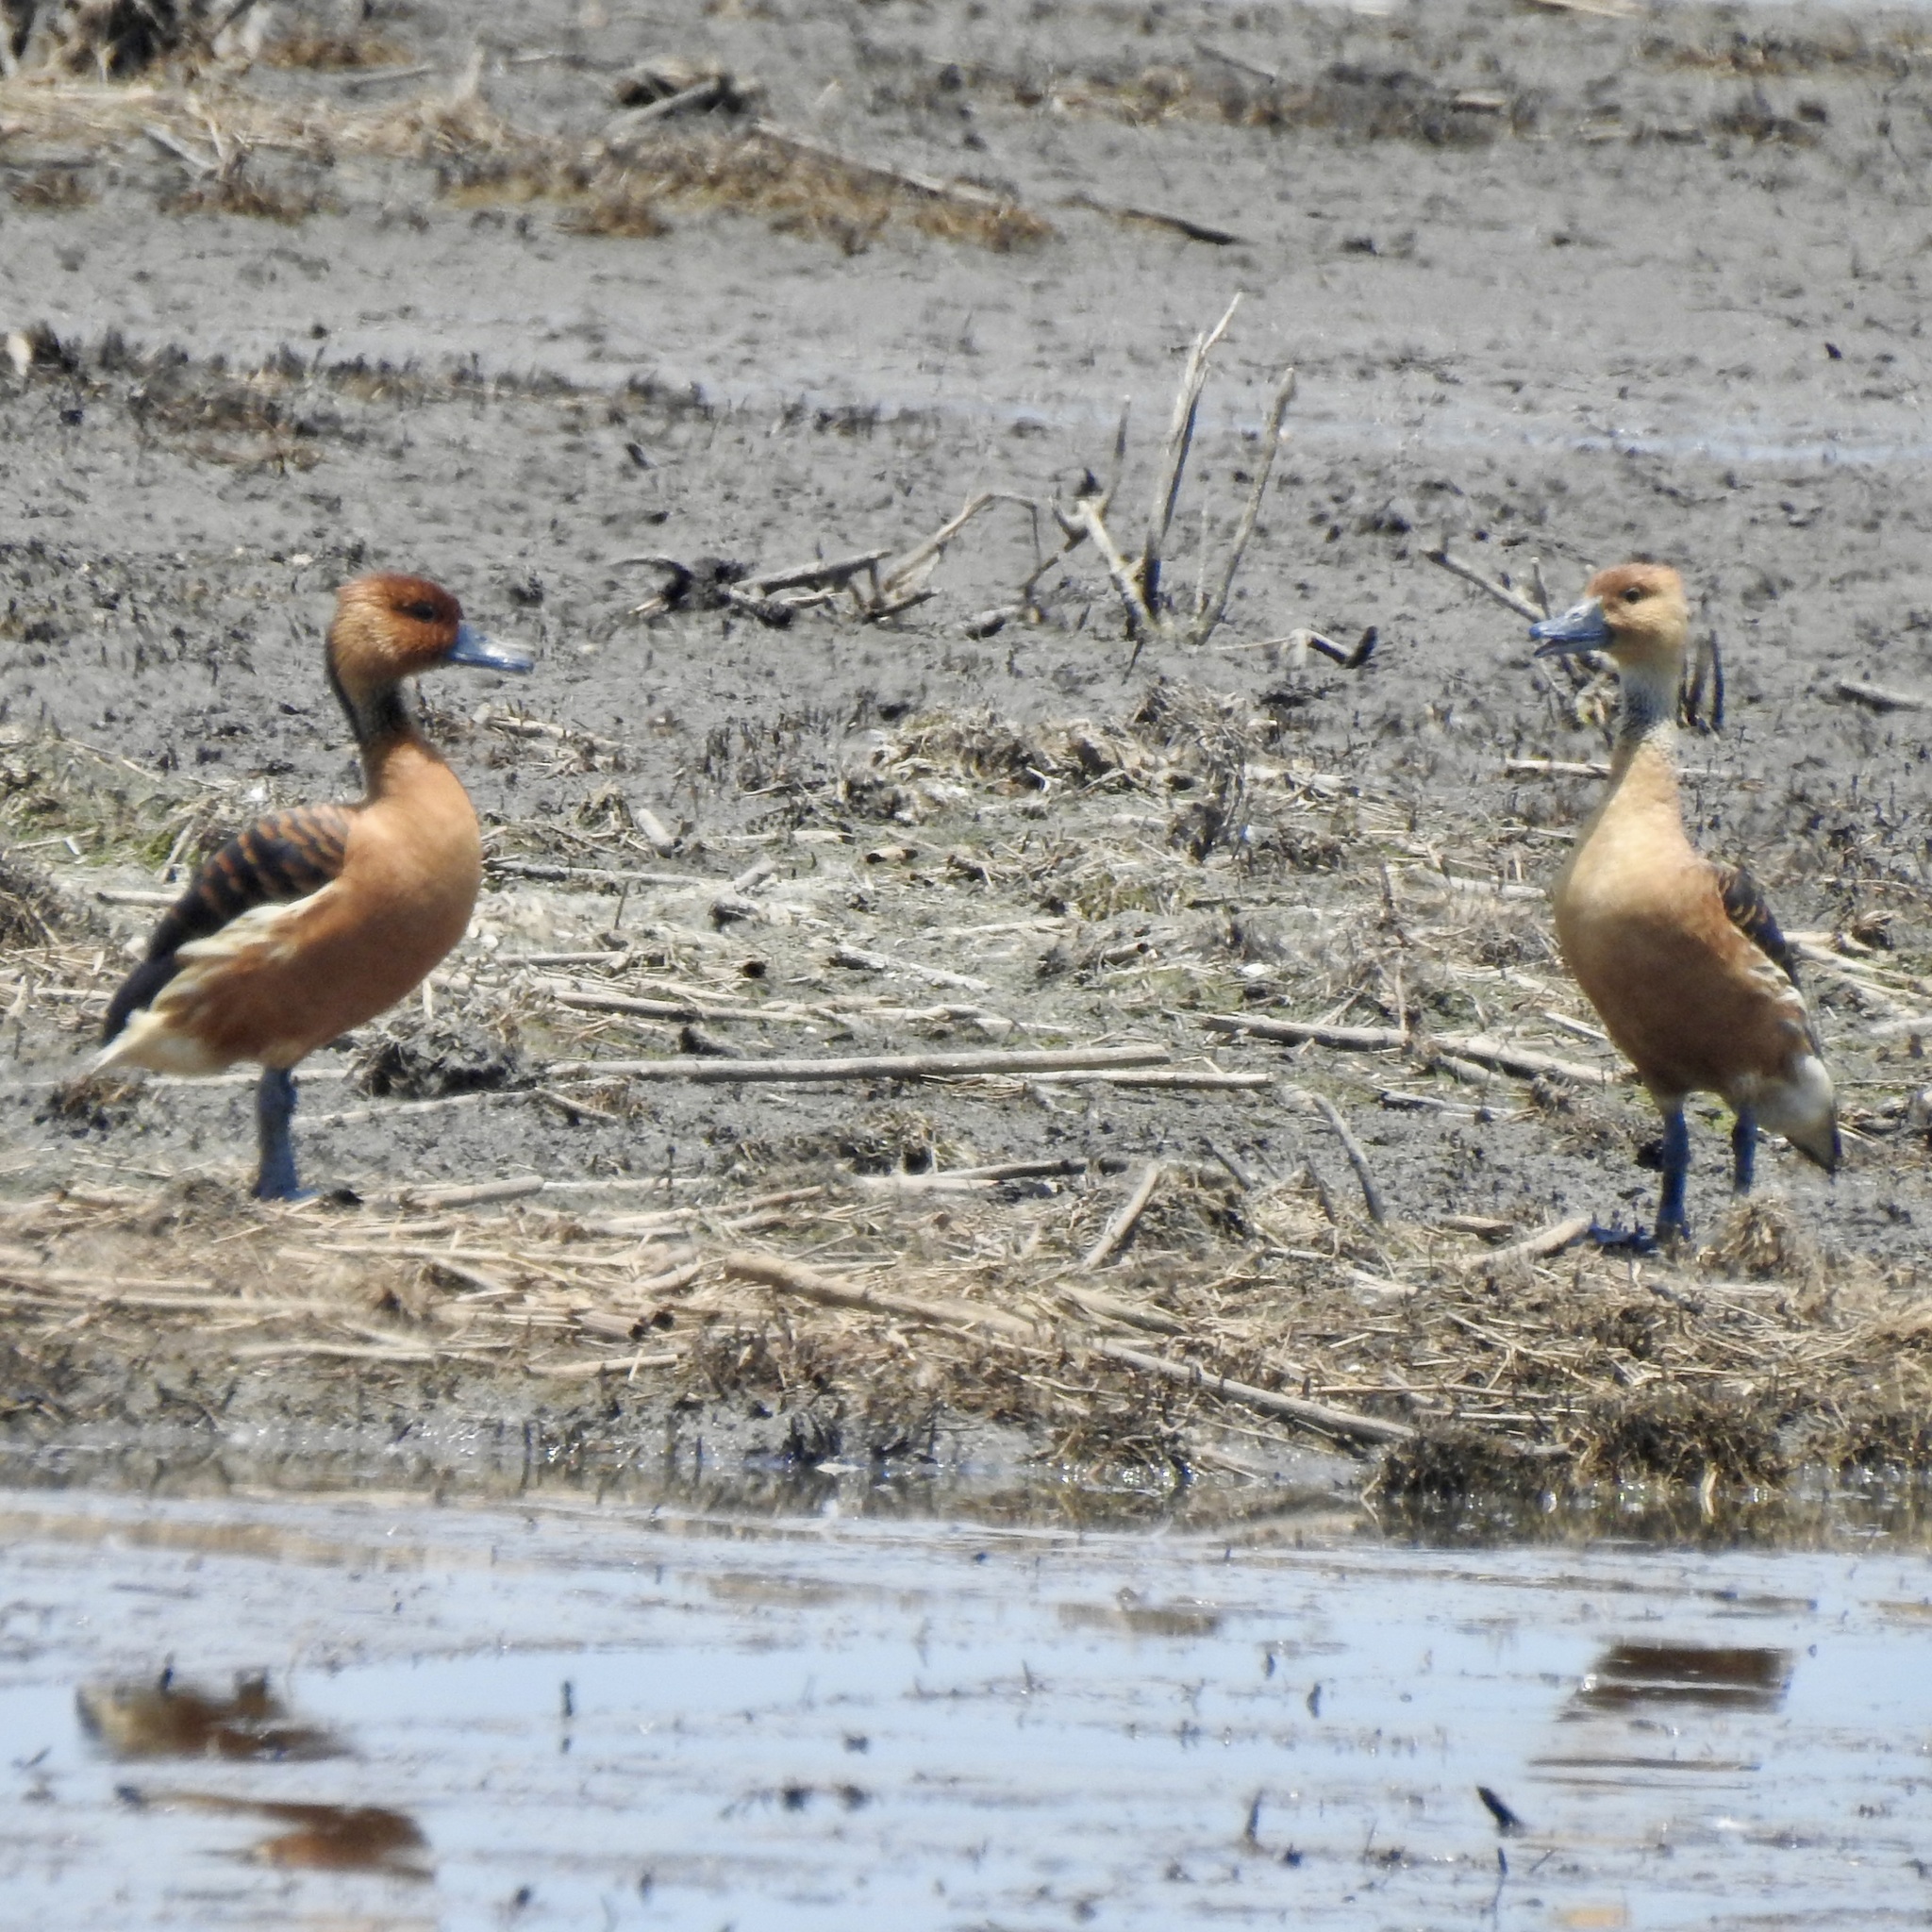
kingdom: Animalia
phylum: Chordata
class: Aves
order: Anseriformes
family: Anatidae
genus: Dendrocygna
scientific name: Dendrocygna bicolor
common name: Fulvous whistling duck
